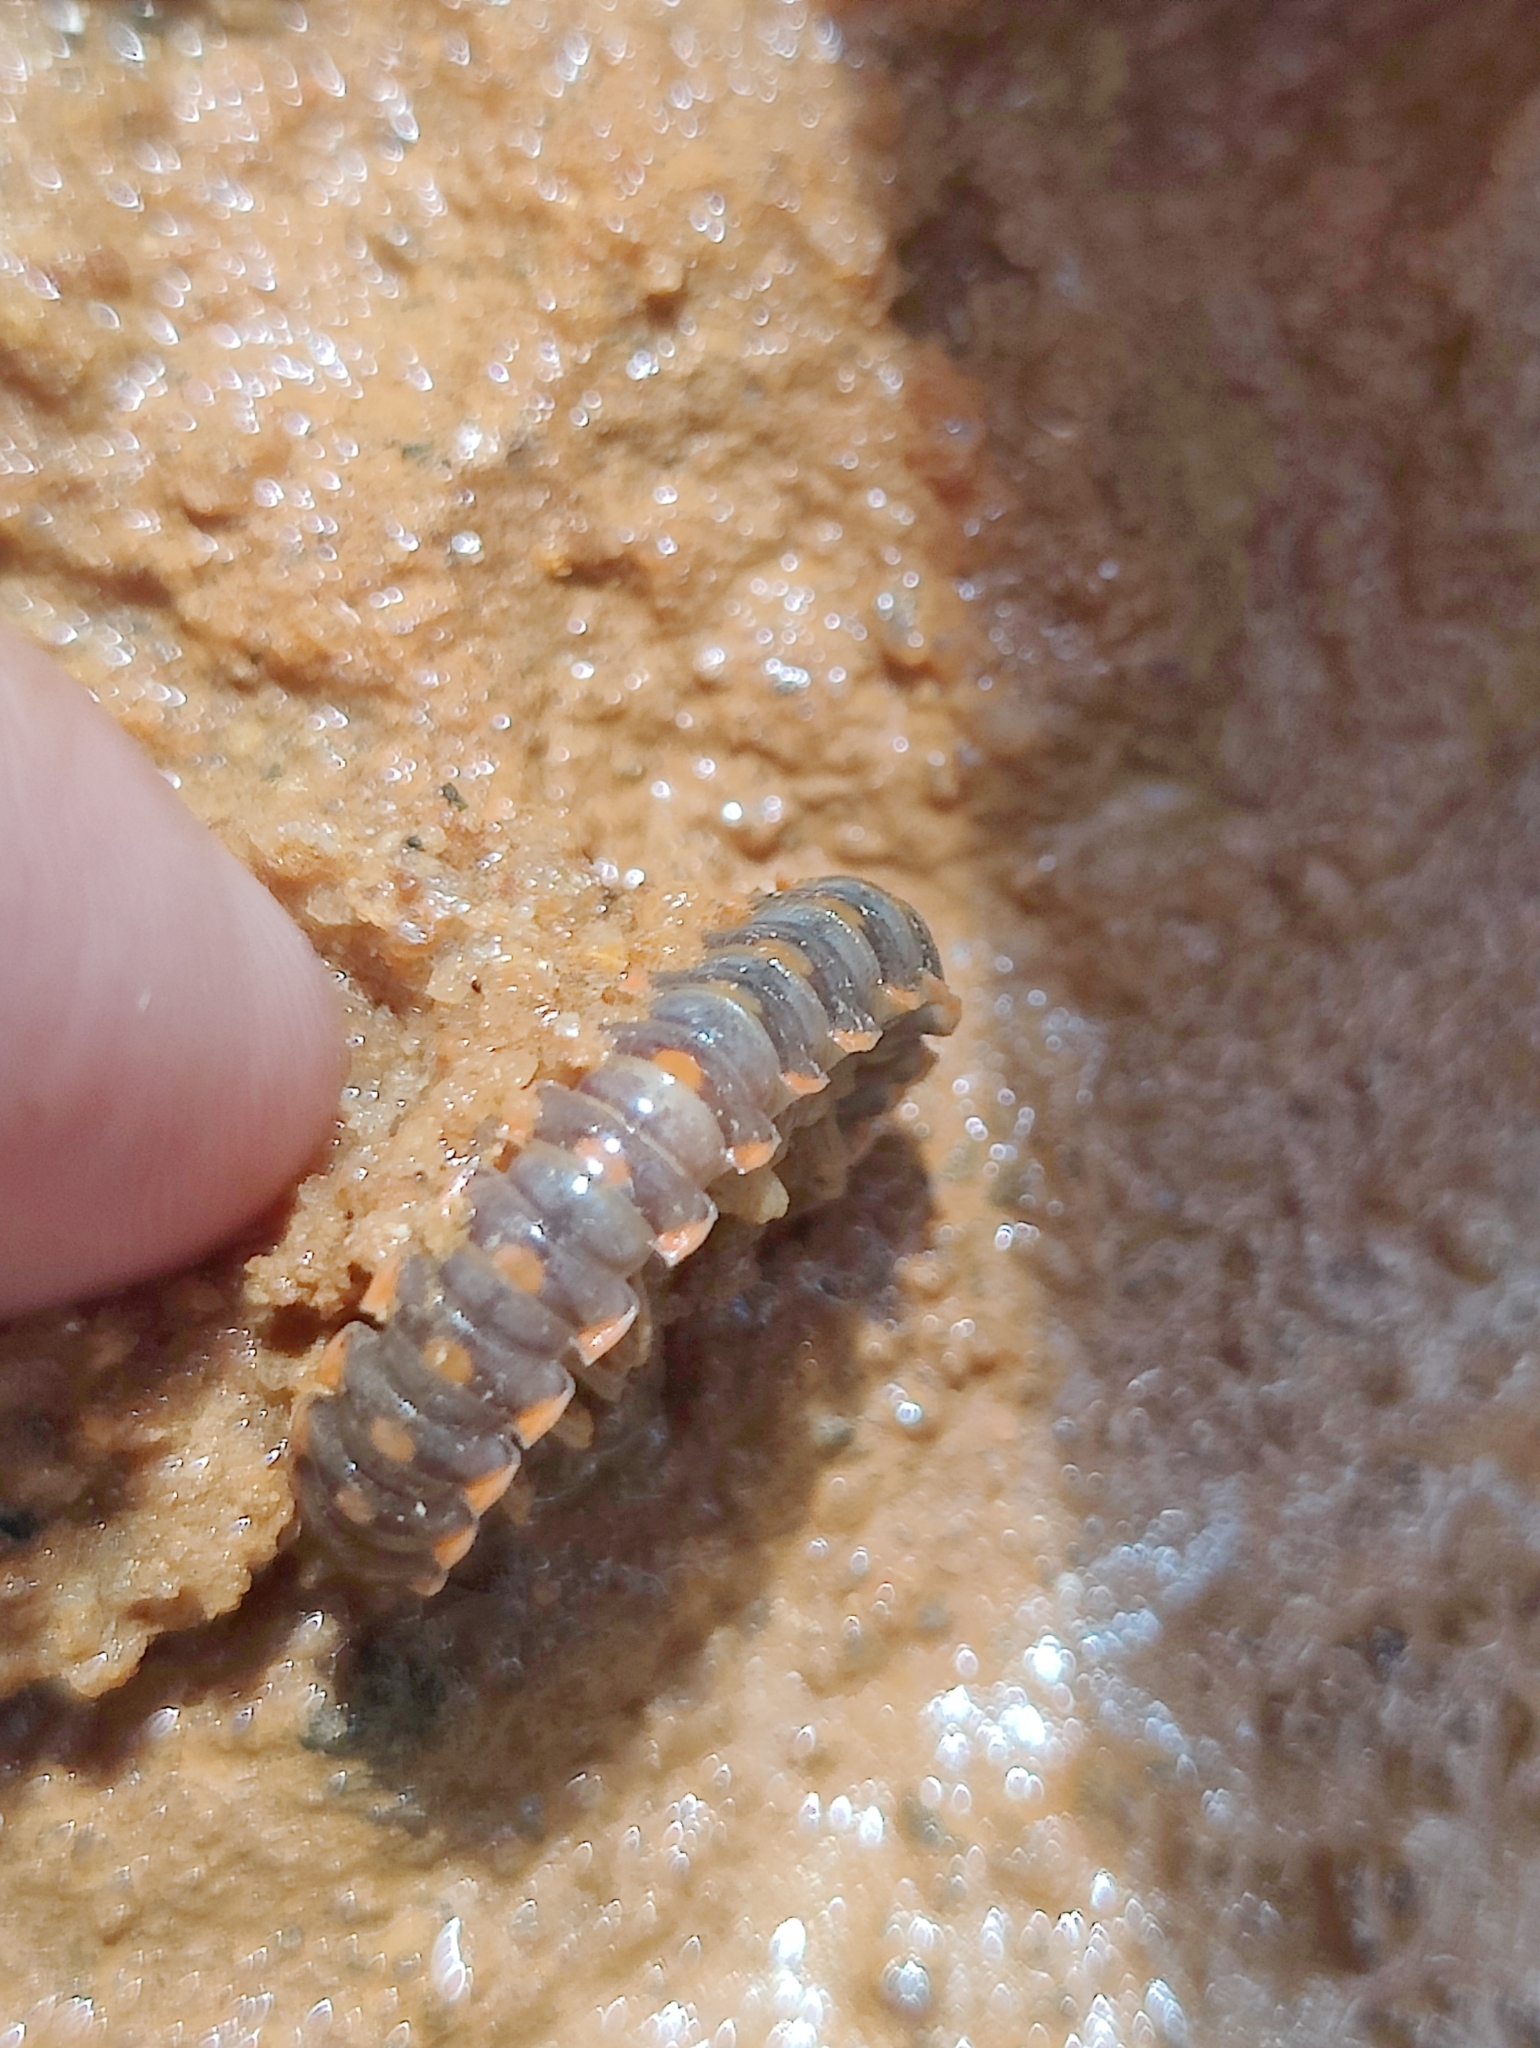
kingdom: Animalia
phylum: Arthropoda
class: Diplopoda
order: Polydesmida
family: Xystodesmidae
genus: Euryurus
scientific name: Euryurus maculatus
